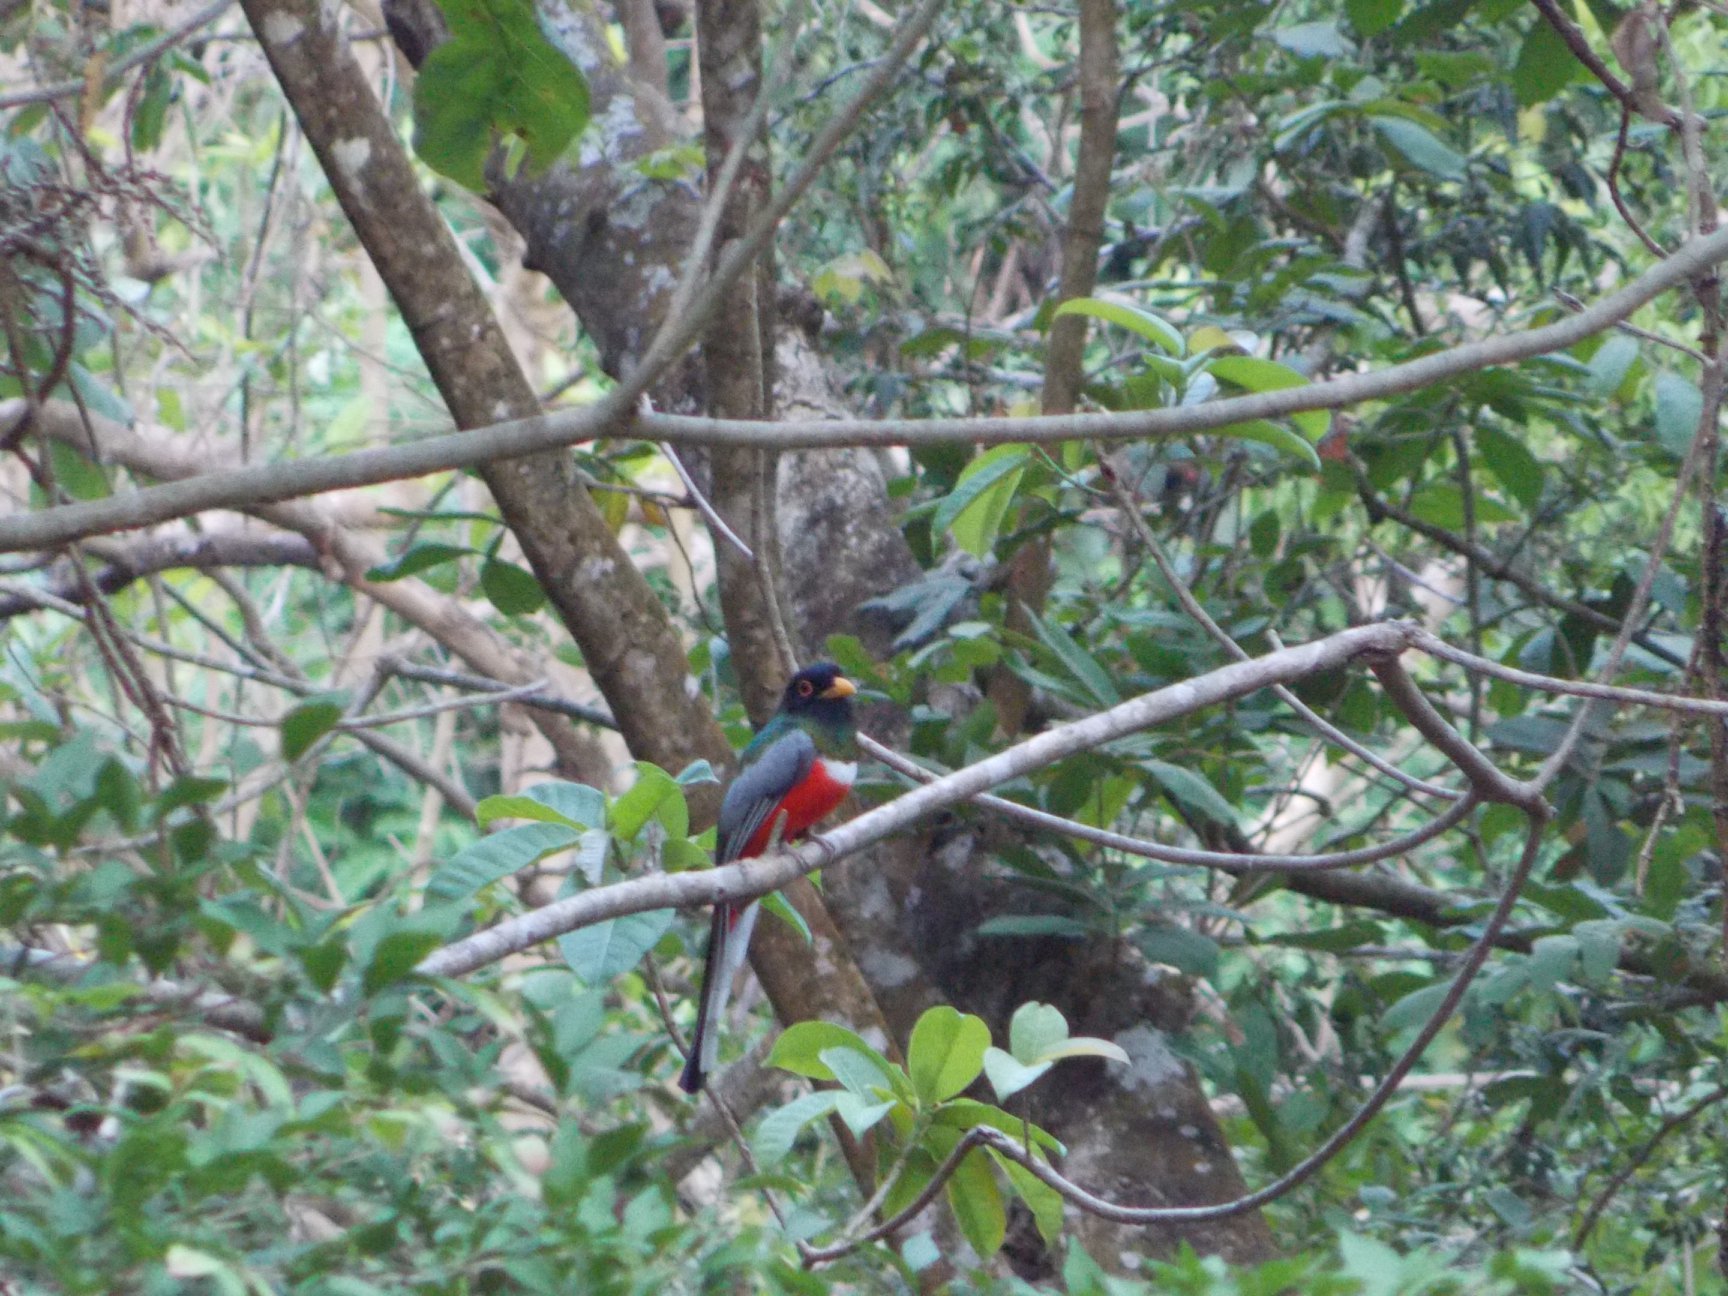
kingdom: Animalia
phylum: Chordata
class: Aves
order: Trogoniformes
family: Trogonidae
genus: Trogon
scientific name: Trogon elegans
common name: Elegant trogon
